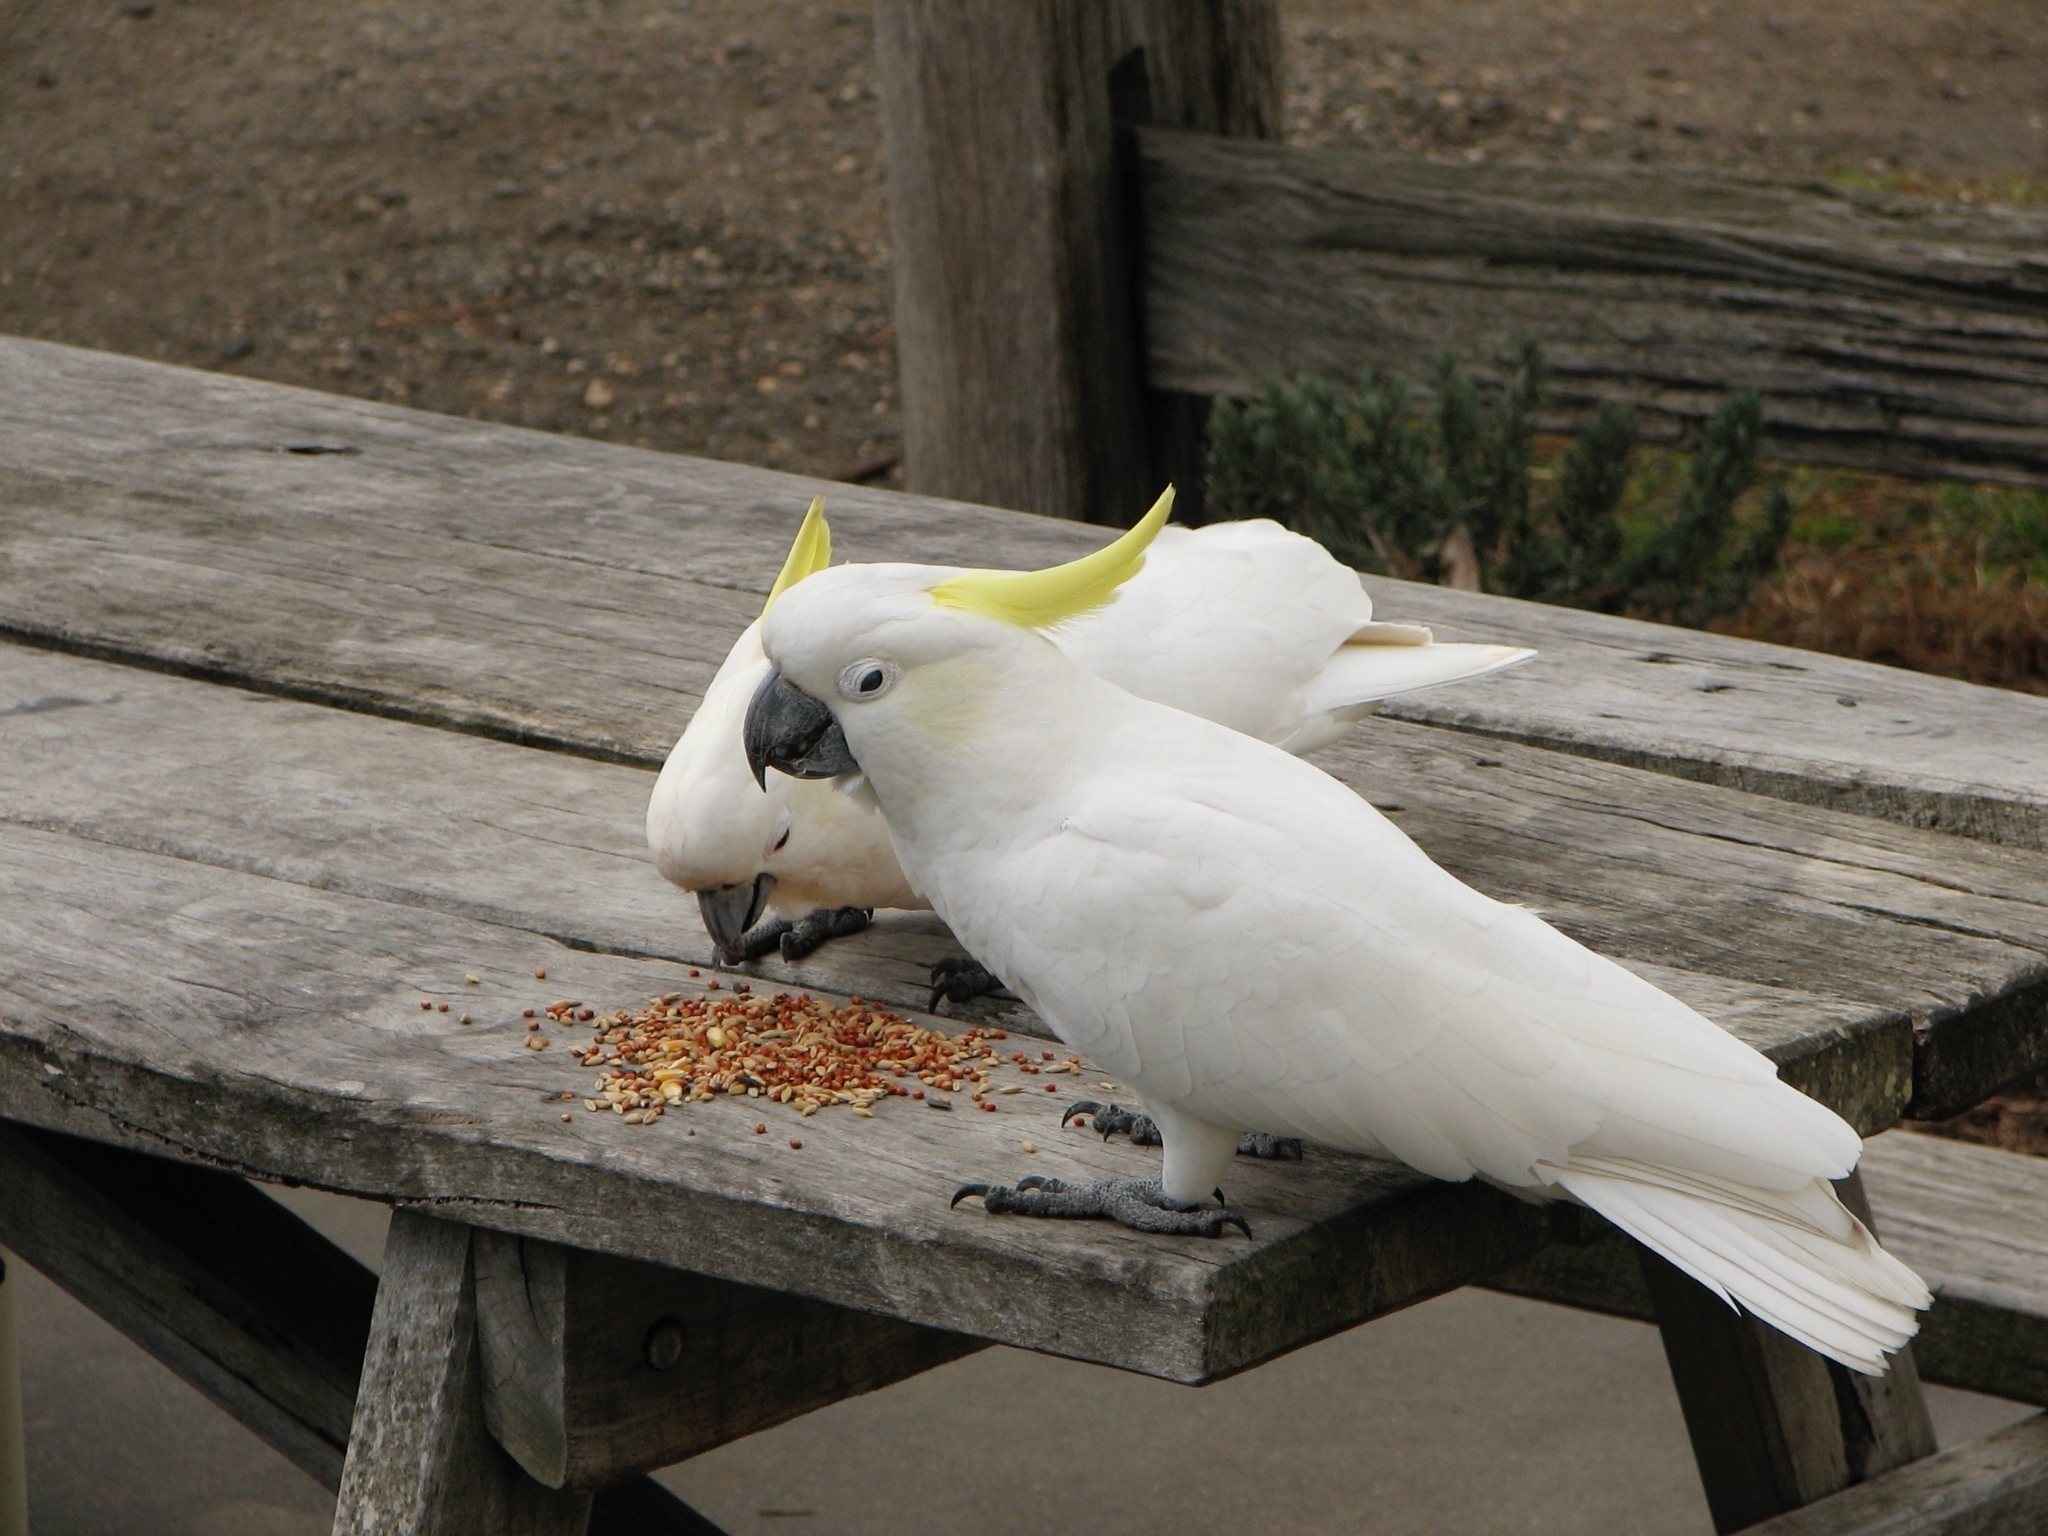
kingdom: Animalia
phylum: Chordata
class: Aves
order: Psittaciformes
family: Psittacidae
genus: Cacatua
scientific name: Cacatua galerita
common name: Sulphur-crested cockatoo
